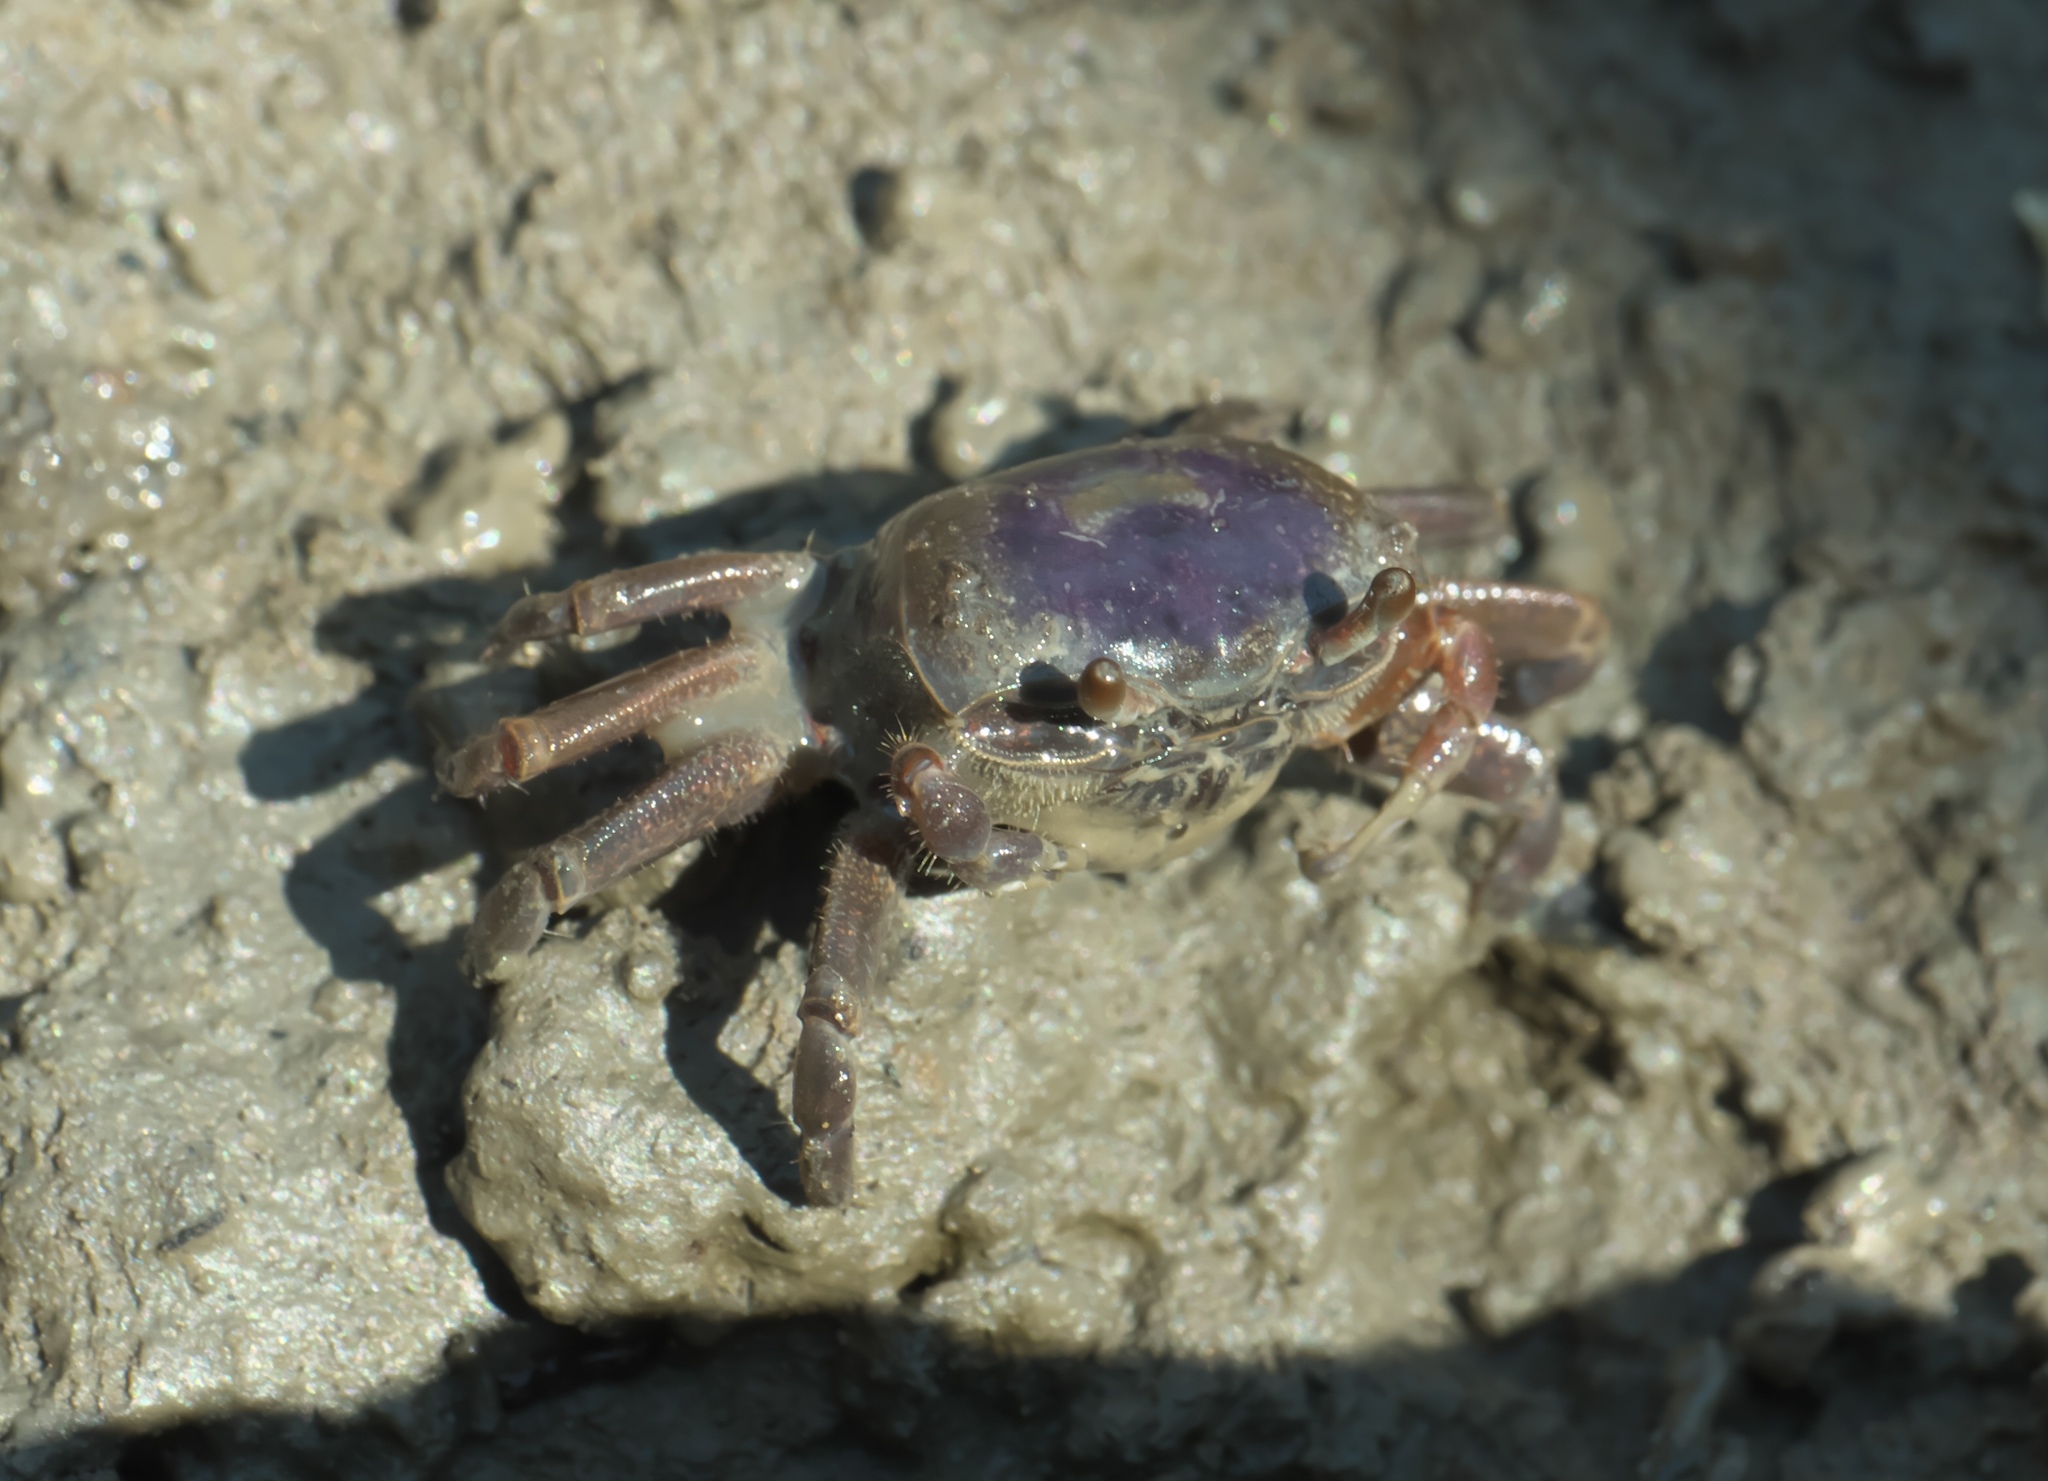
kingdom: Animalia
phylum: Arthropoda
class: Malacostraca
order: Decapoda
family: Ocypodidae
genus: Leptuca
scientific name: Leptuca pugilator
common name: Atlantic sand fiddler crab
